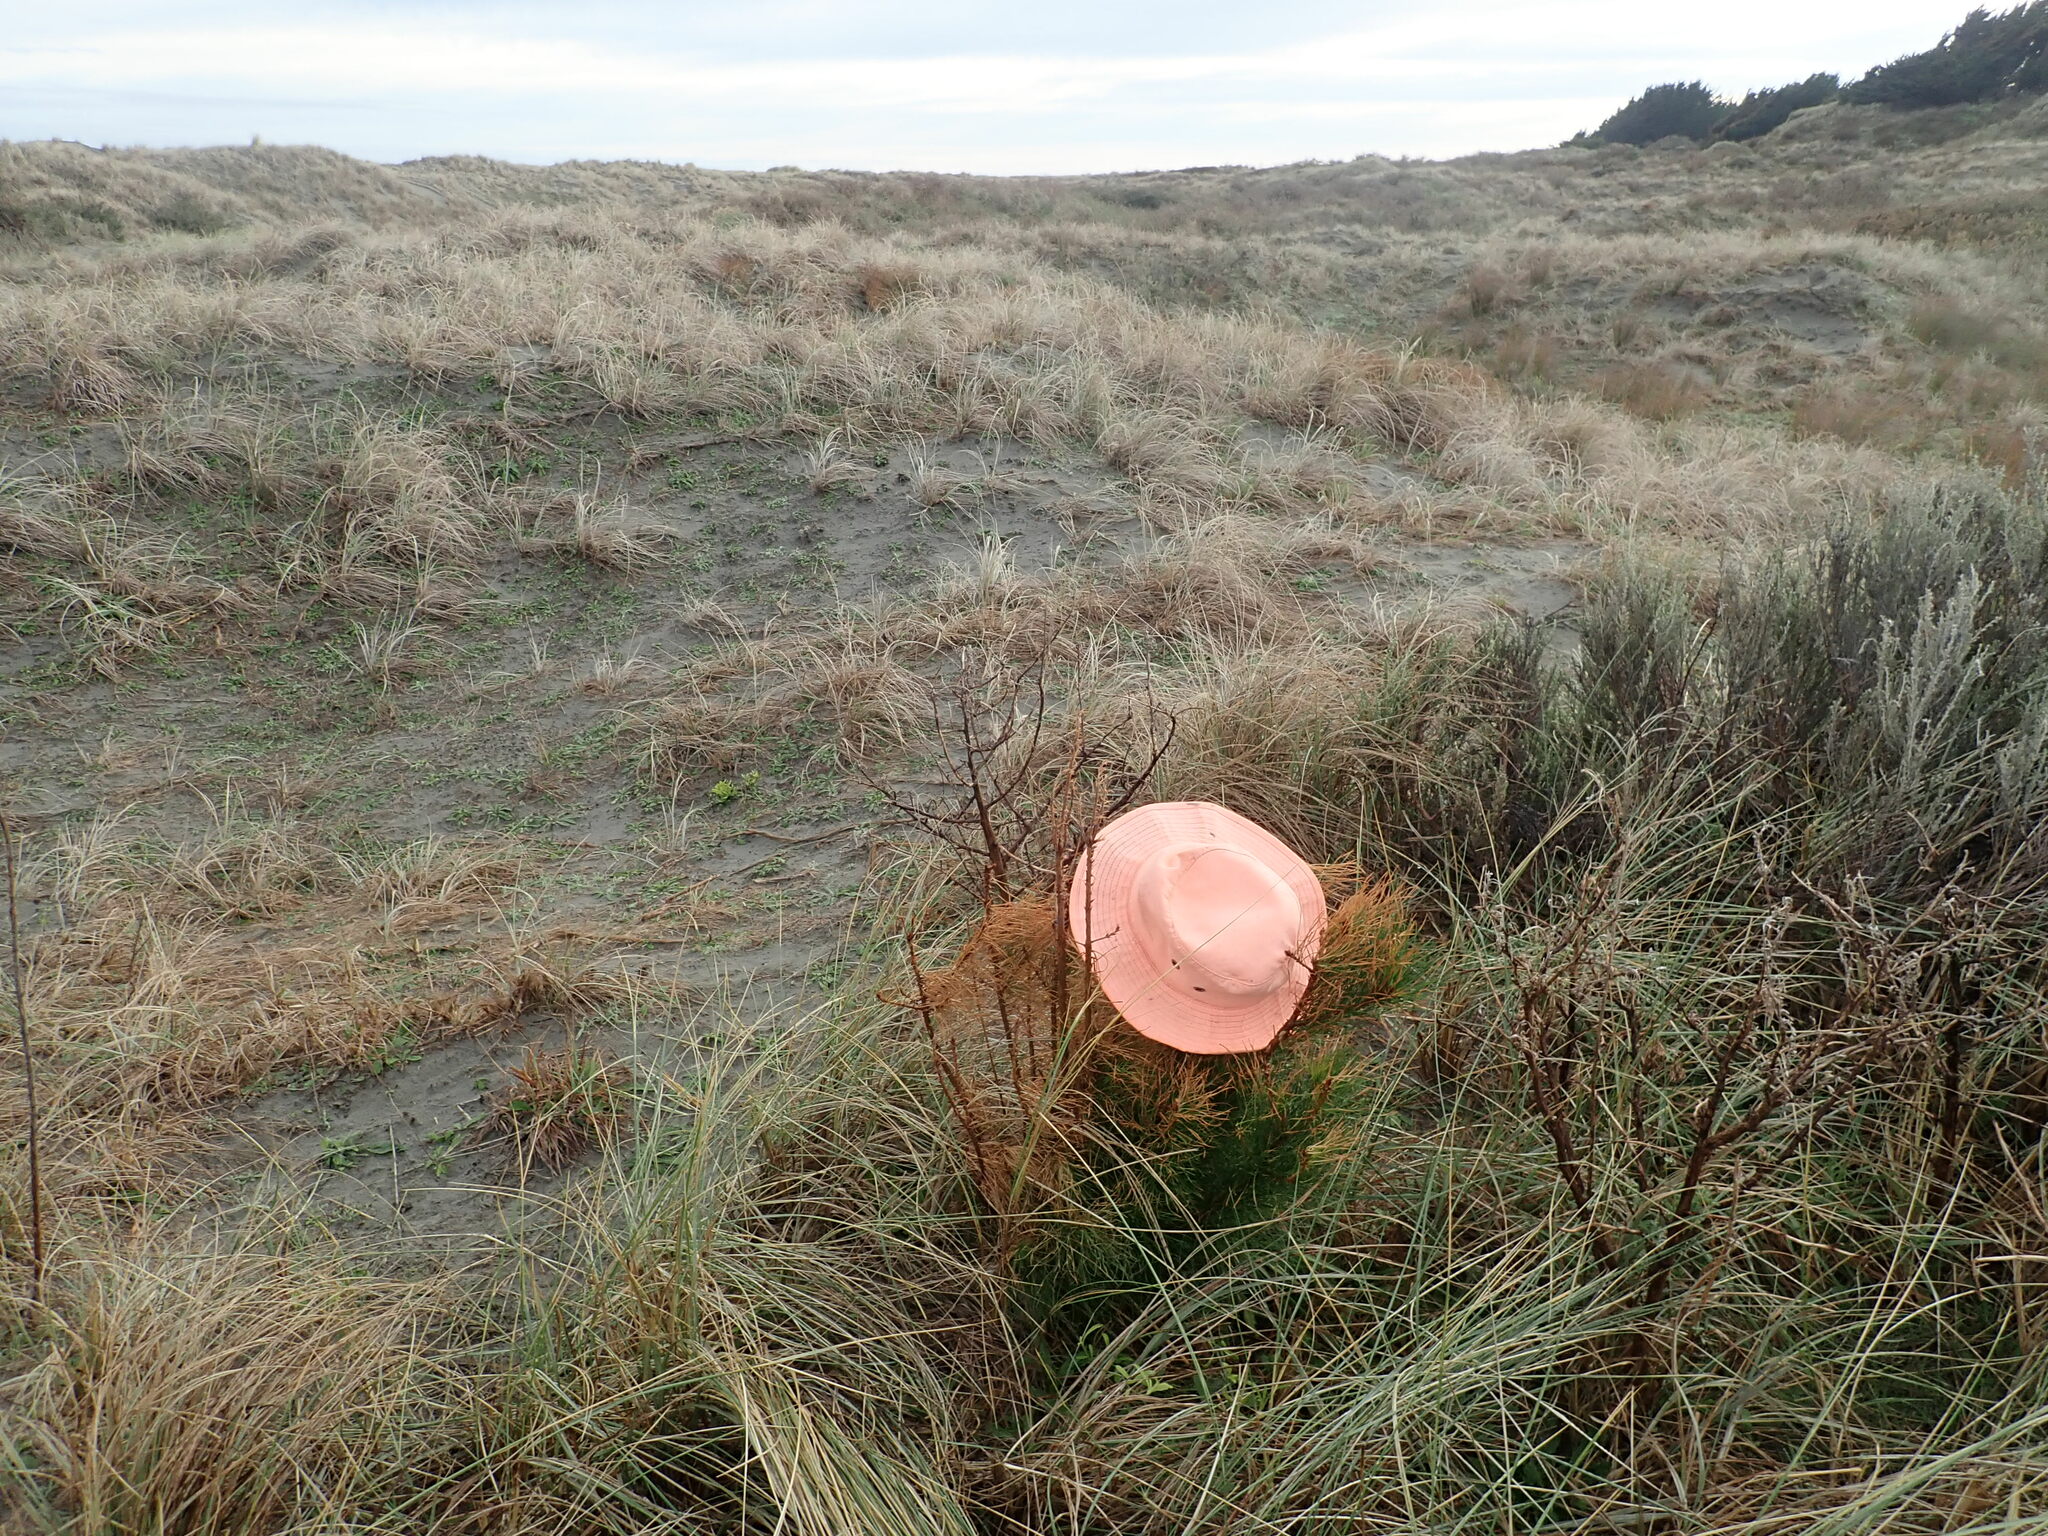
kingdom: Plantae
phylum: Tracheophyta
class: Pinopsida
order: Pinales
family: Pinaceae
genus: Pinus
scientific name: Pinus radiata
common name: Monterey pine
